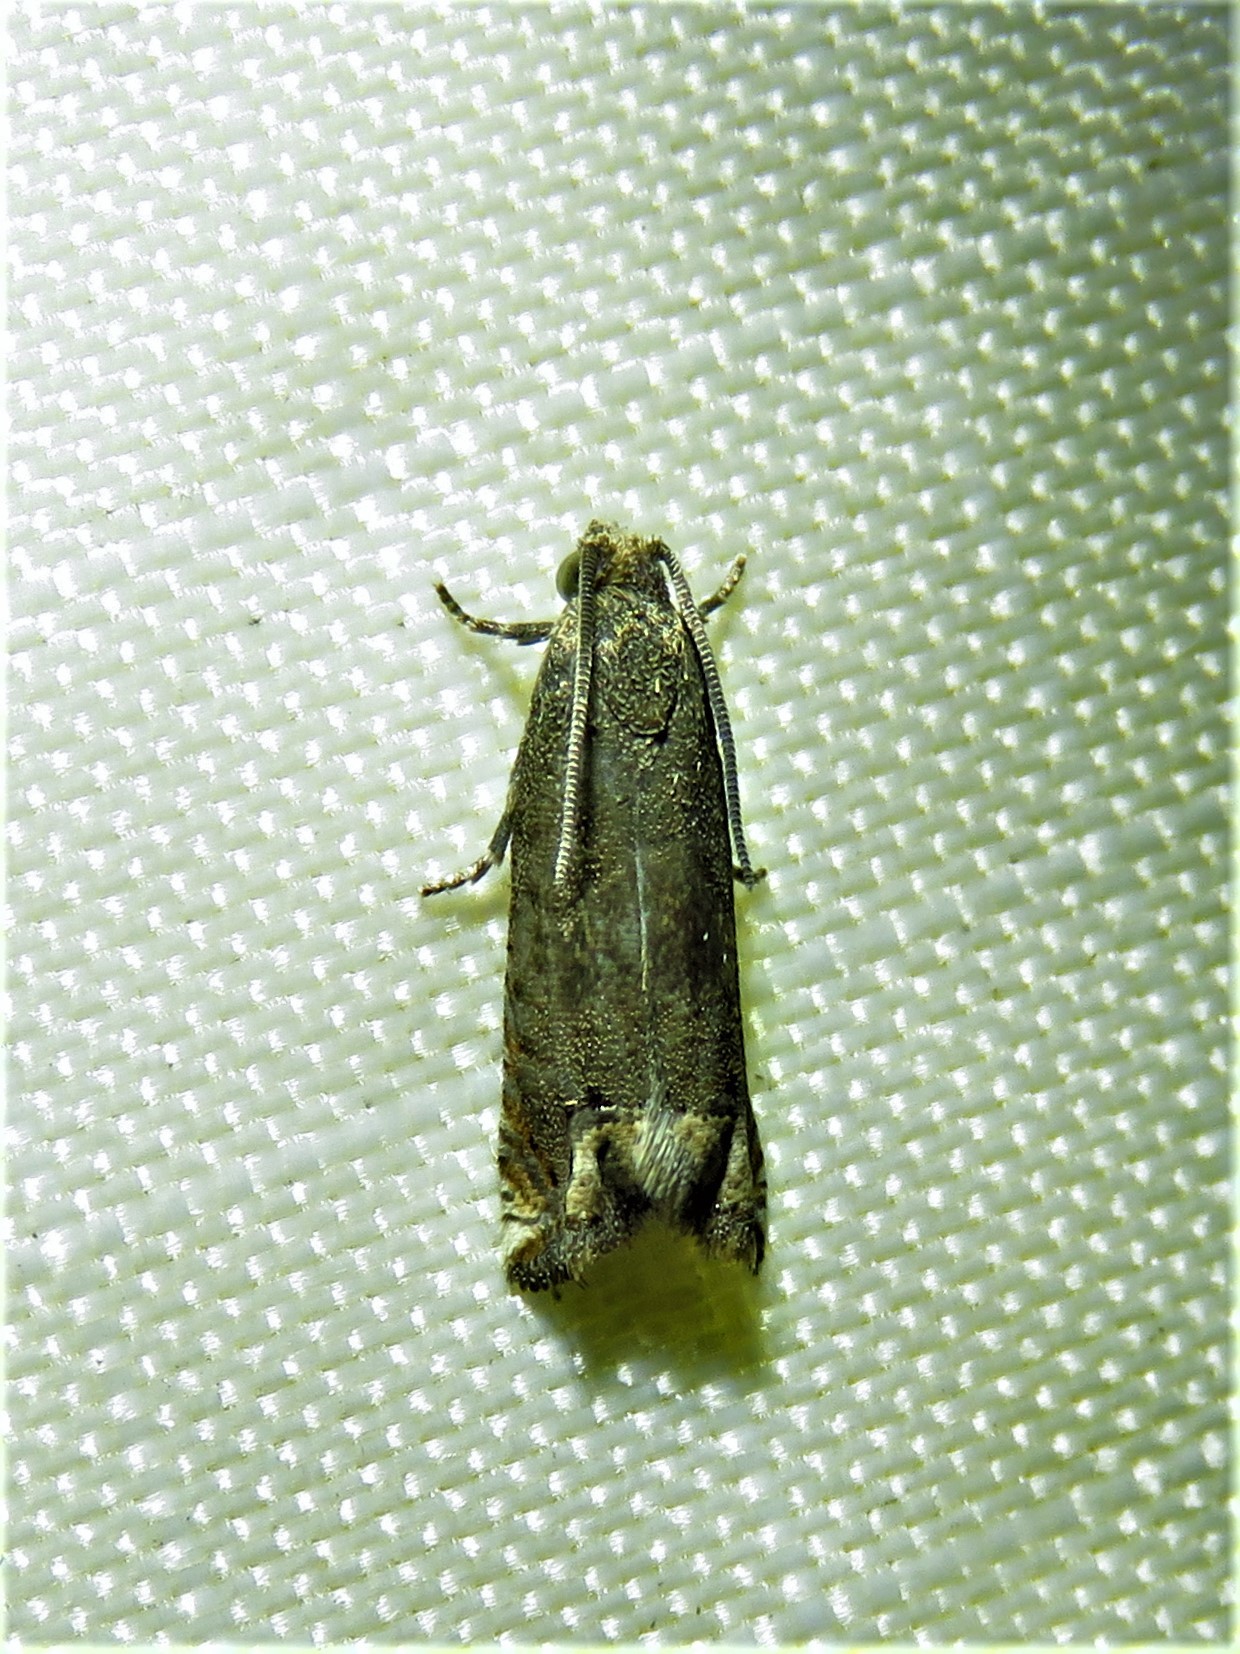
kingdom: Animalia
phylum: Arthropoda
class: Insecta
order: Lepidoptera
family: Tortricidae
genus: Epiblema
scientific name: Epiblema strenuana
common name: Ragweed borer moth
